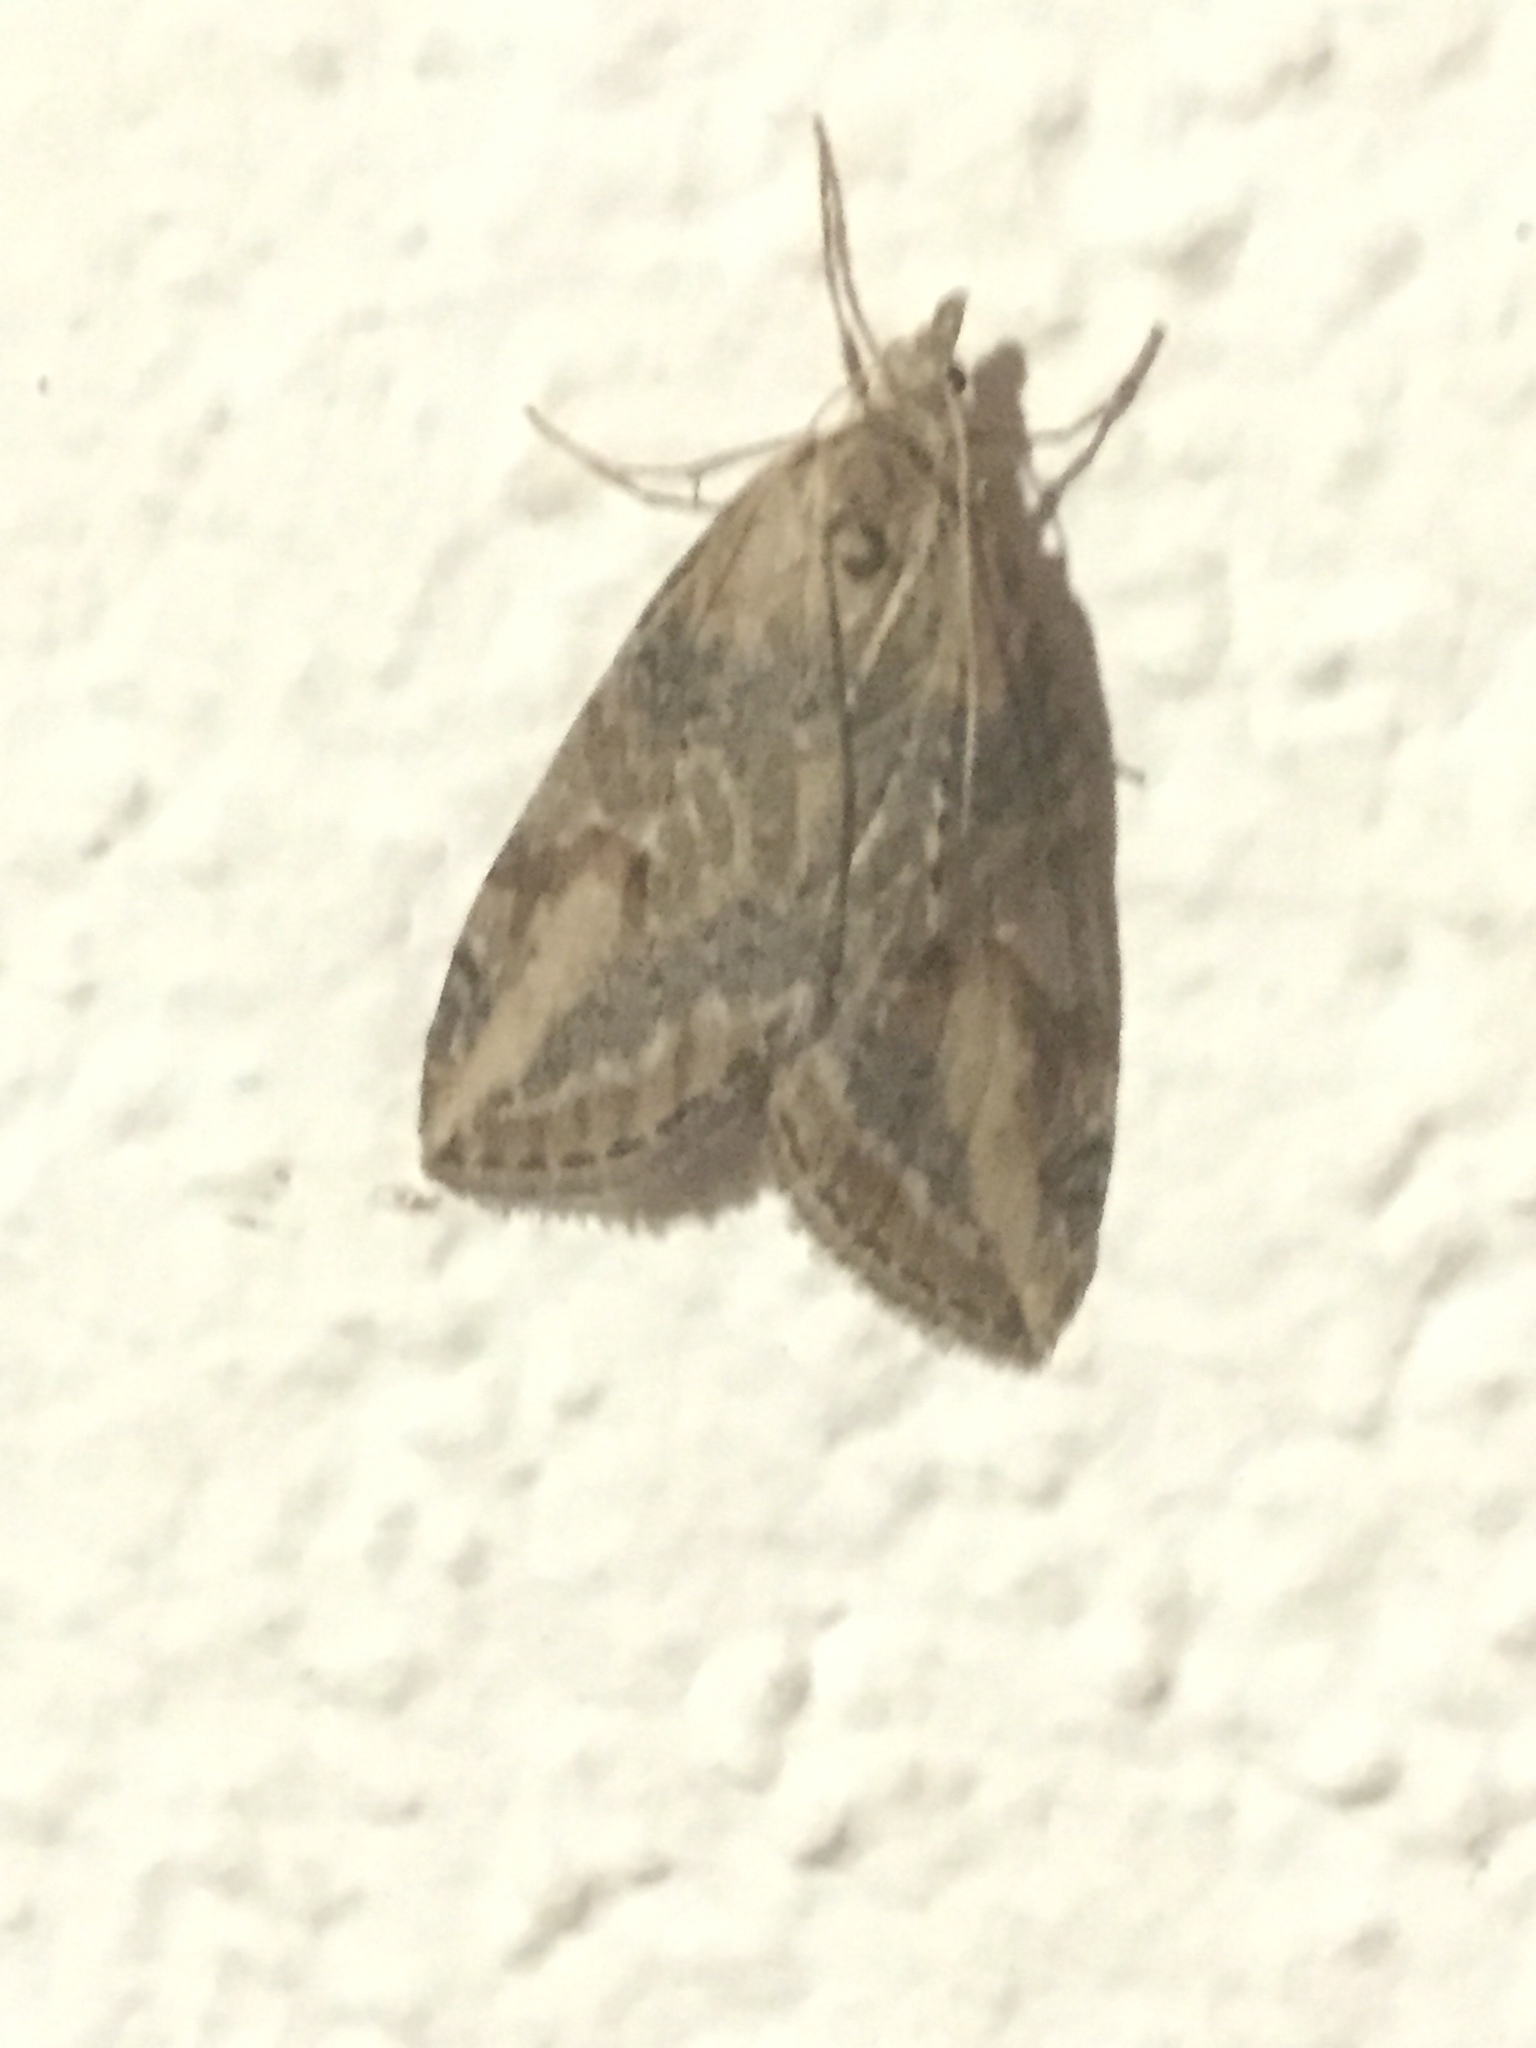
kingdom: Animalia
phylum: Arthropoda
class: Insecta
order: Lepidoptera
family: Geometridae
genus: Chesias
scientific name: Chesias isabella
